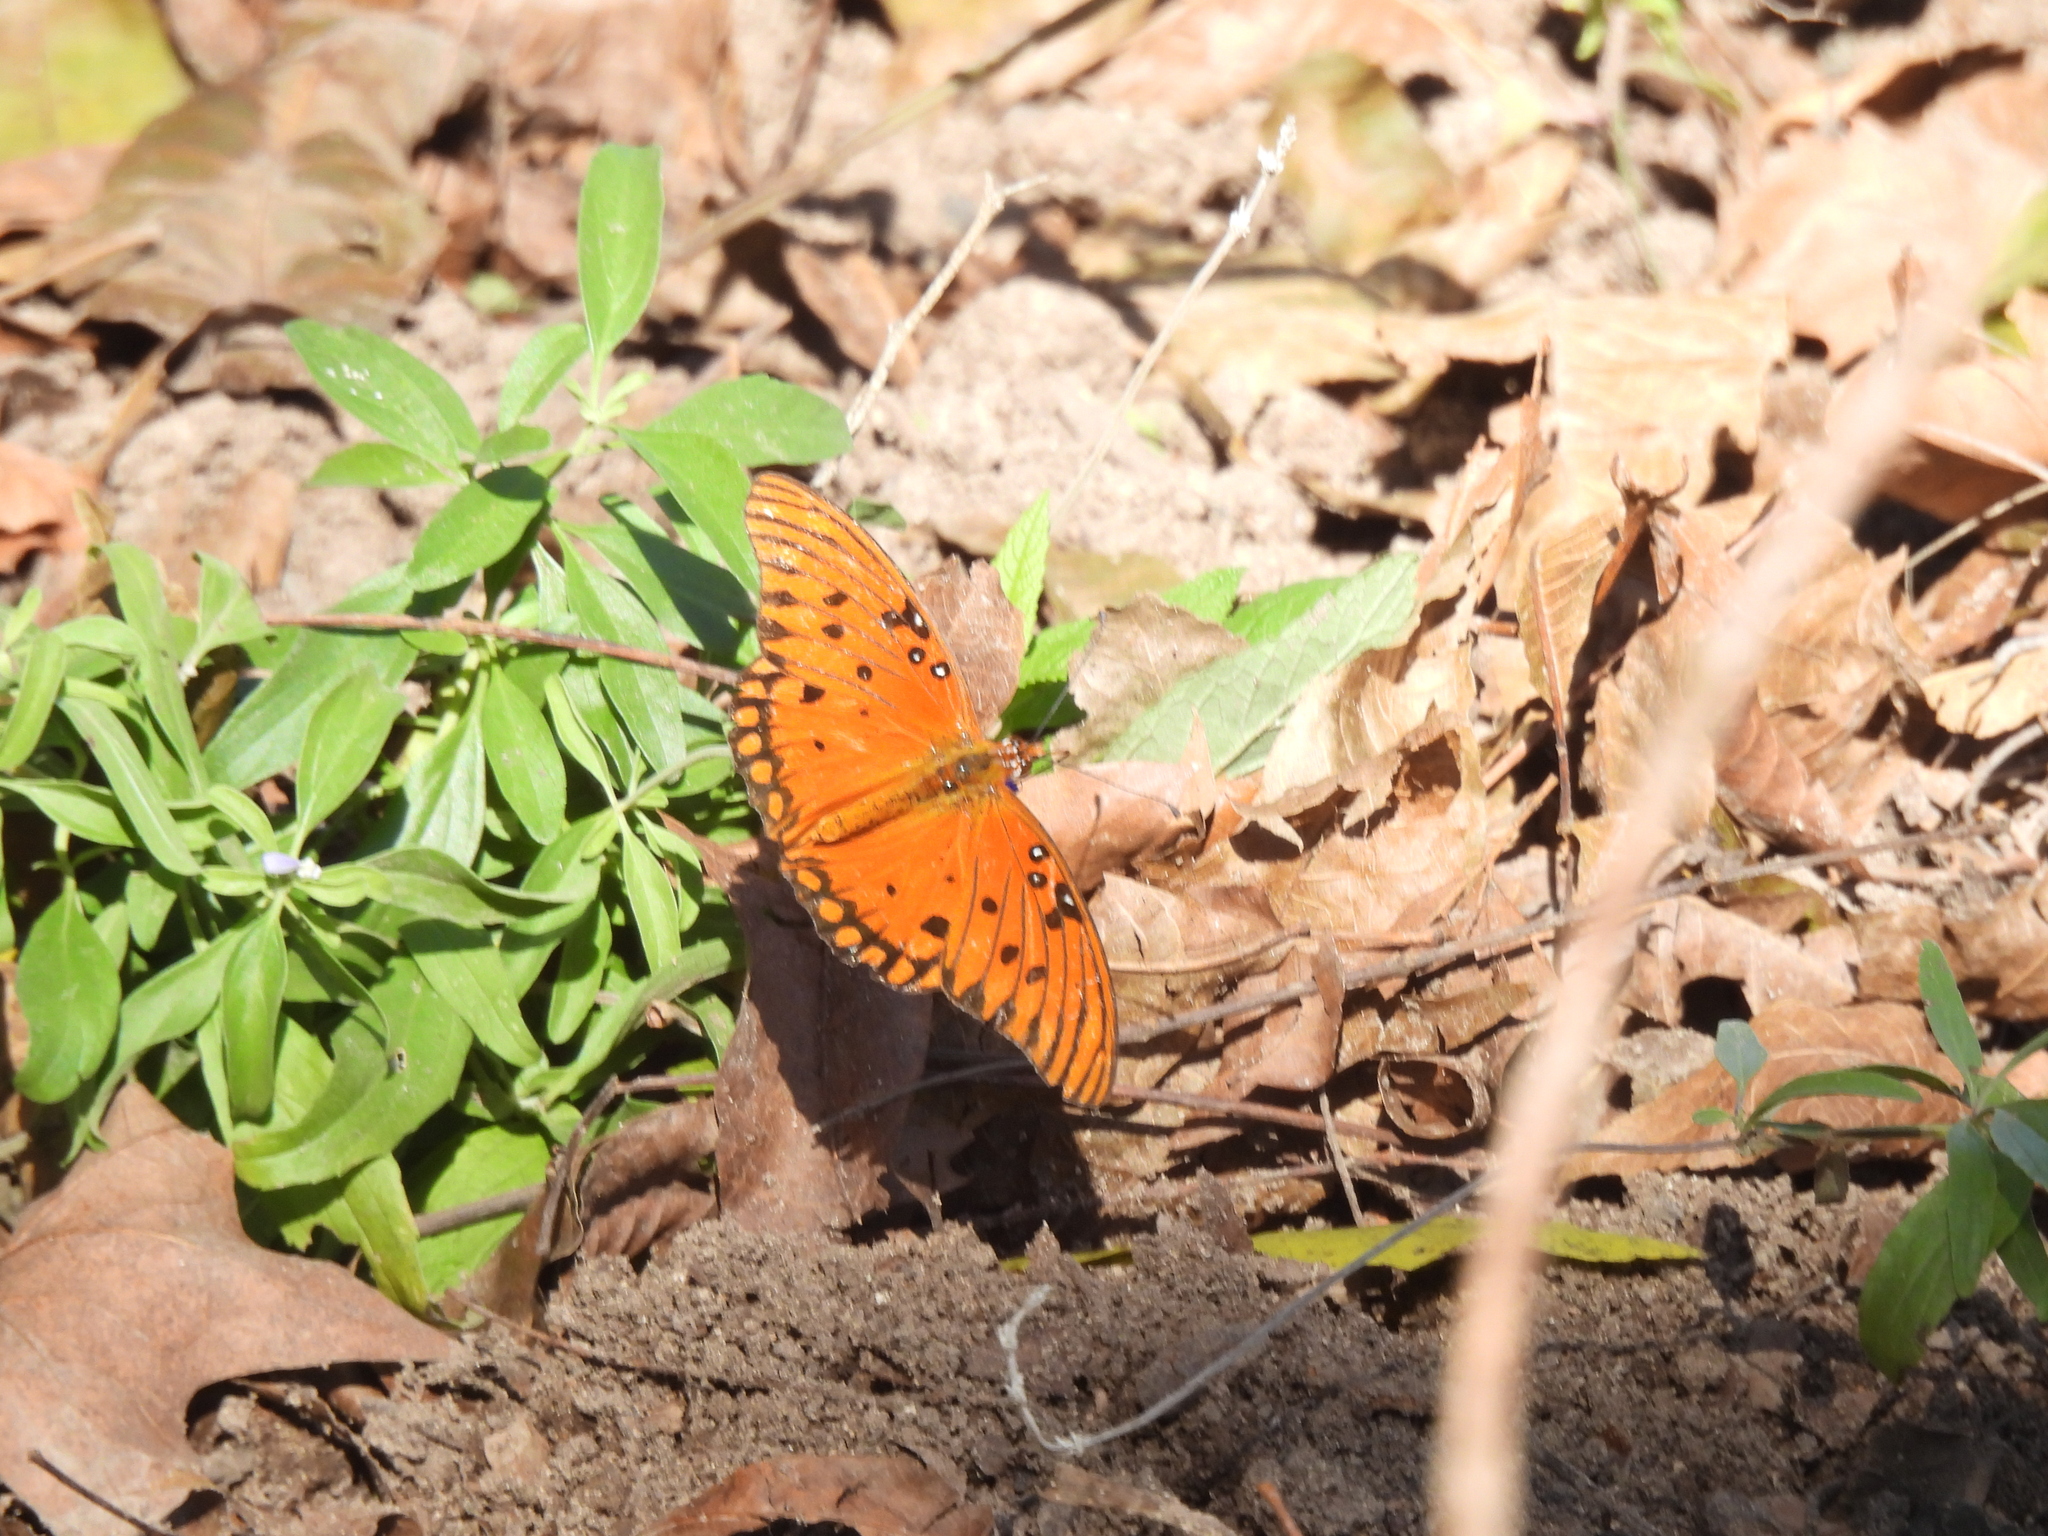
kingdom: Animalia
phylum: Arthropoda
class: Insecta
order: Lepidoptera
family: Nymphalidae
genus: Dione
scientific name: Dione vanillae
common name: Gulf fritillary
